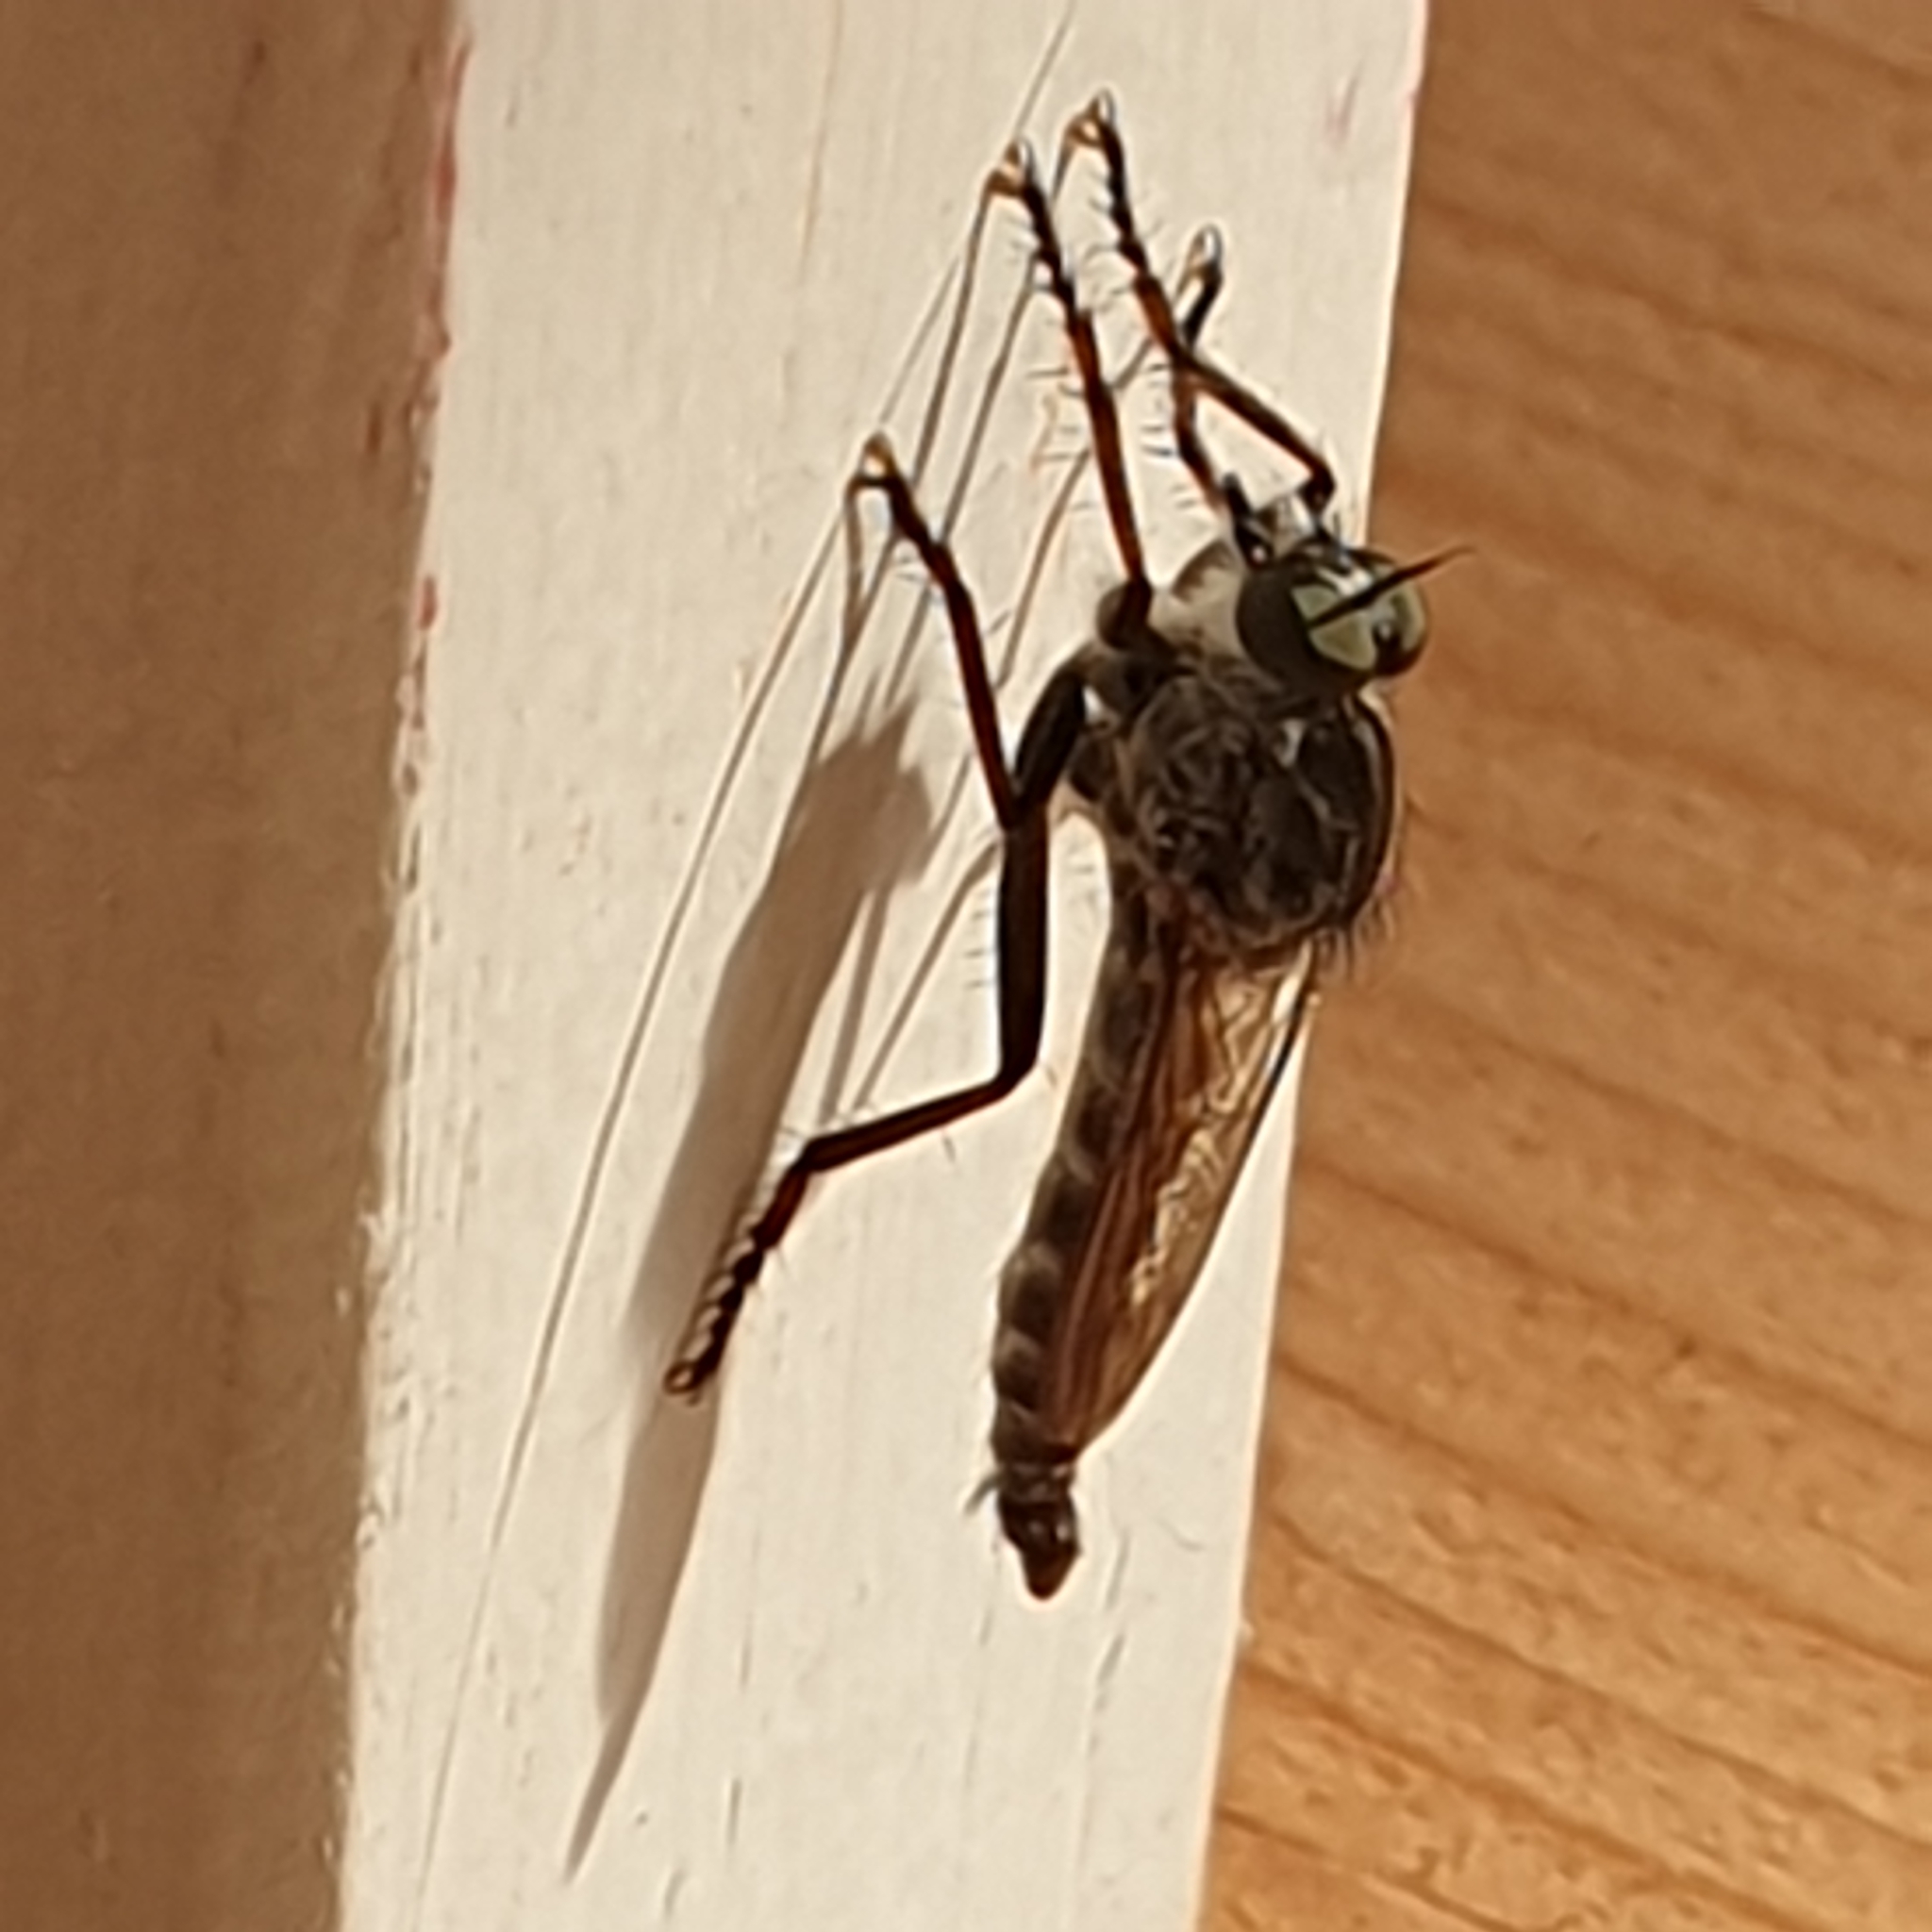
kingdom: Animalia
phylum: Arthropoda
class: Insecta
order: Diptera
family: Asilidae
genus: Machimus
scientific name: Machimus atricapillus
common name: Kite-tailed robberfly
